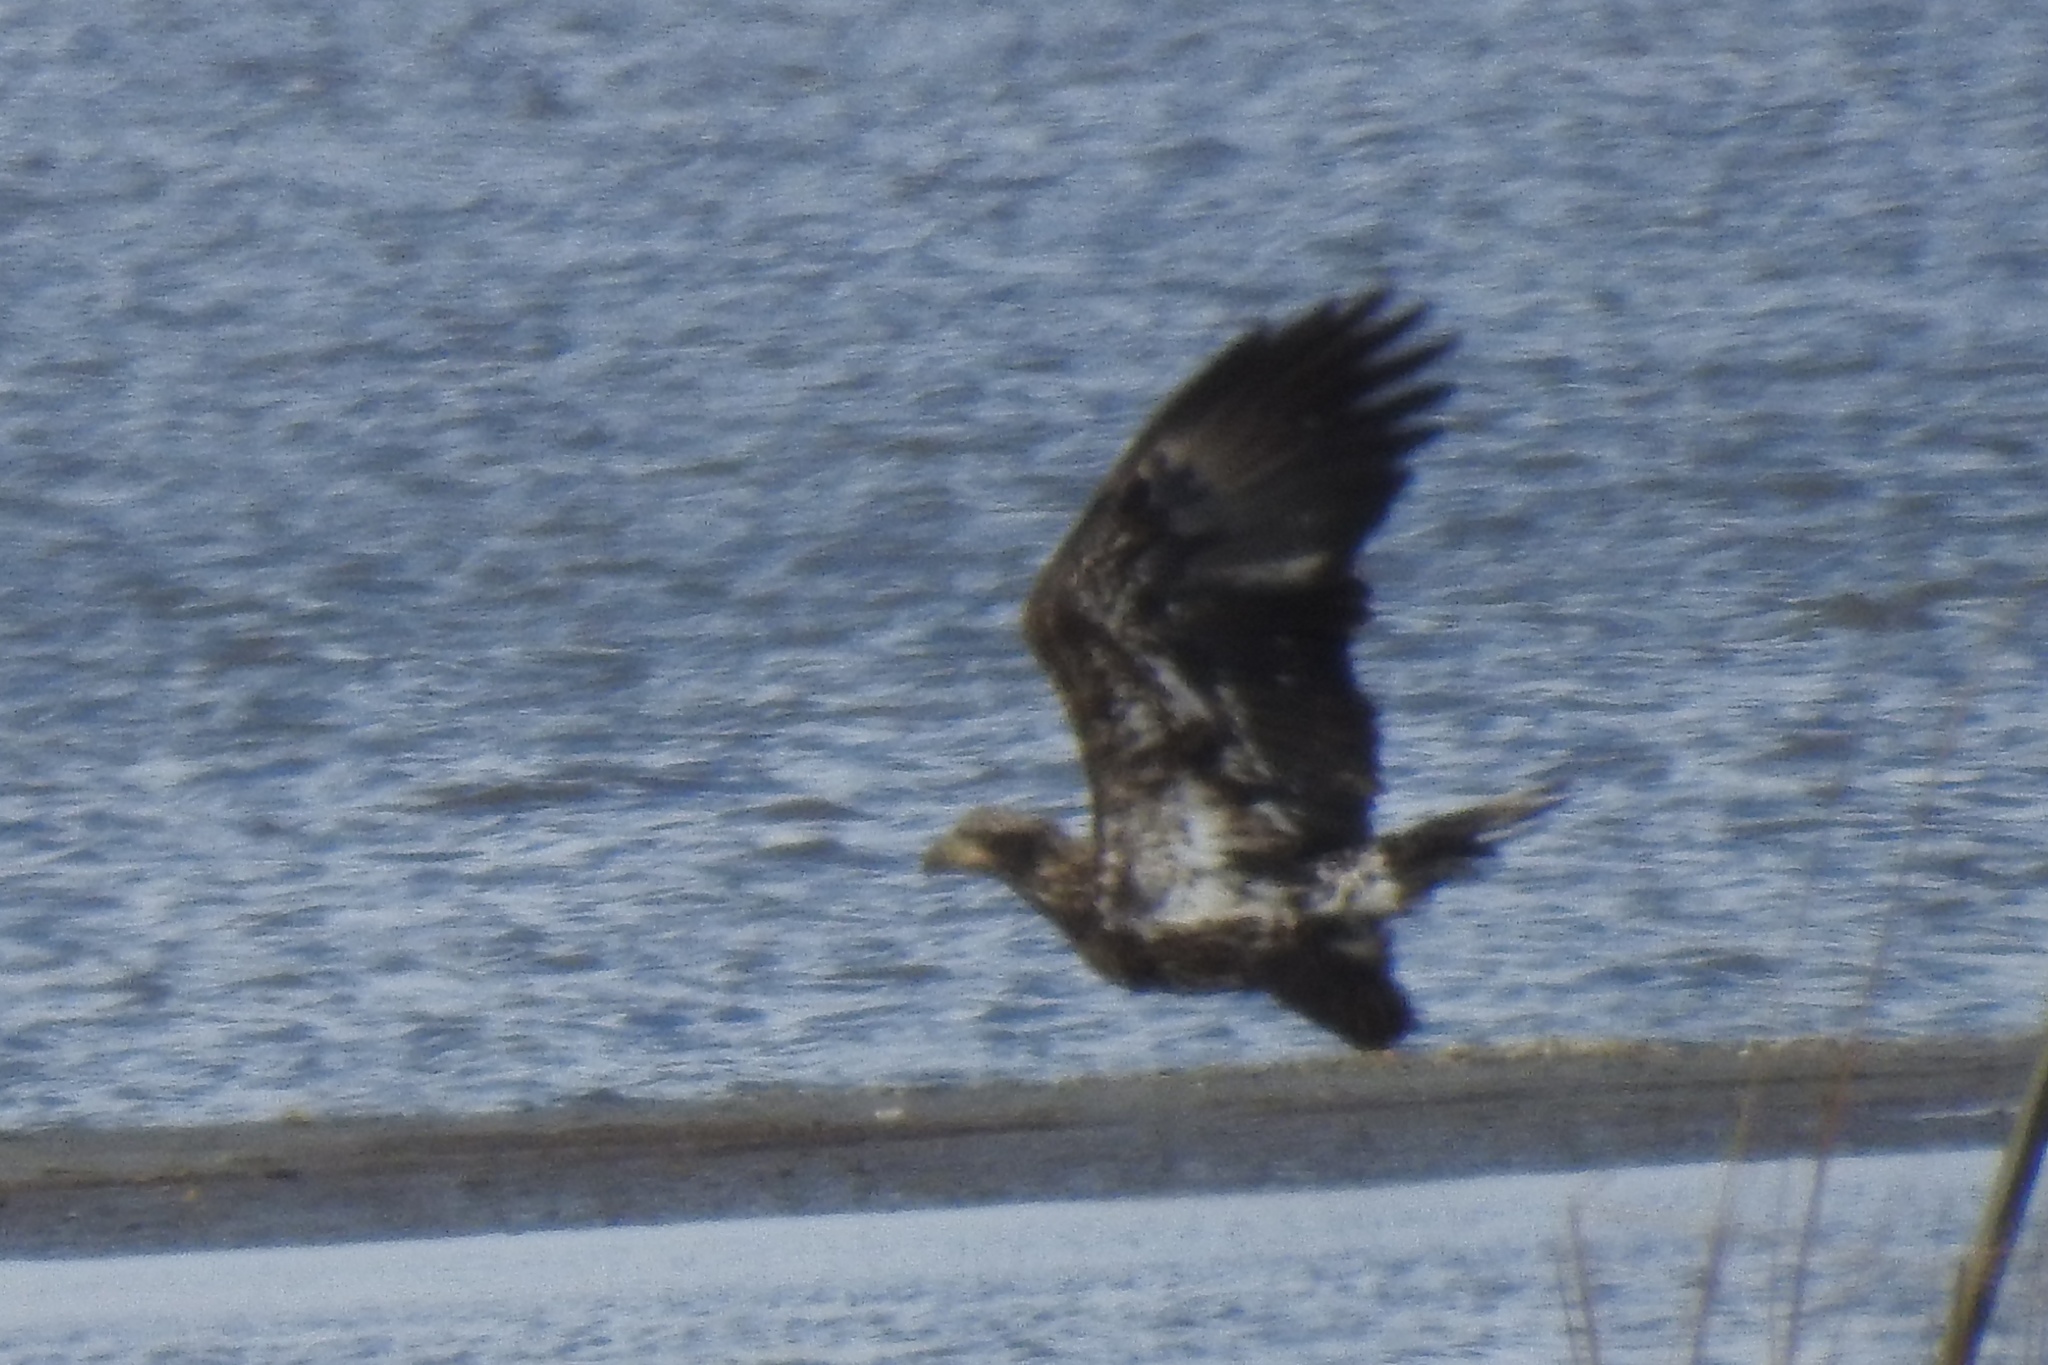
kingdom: Animalia
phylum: Chordata
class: Aves
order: Accipitriformes
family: Accipitridae
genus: Haliaeetus
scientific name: Haliaeetus leucocephalus
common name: Bald eagle
